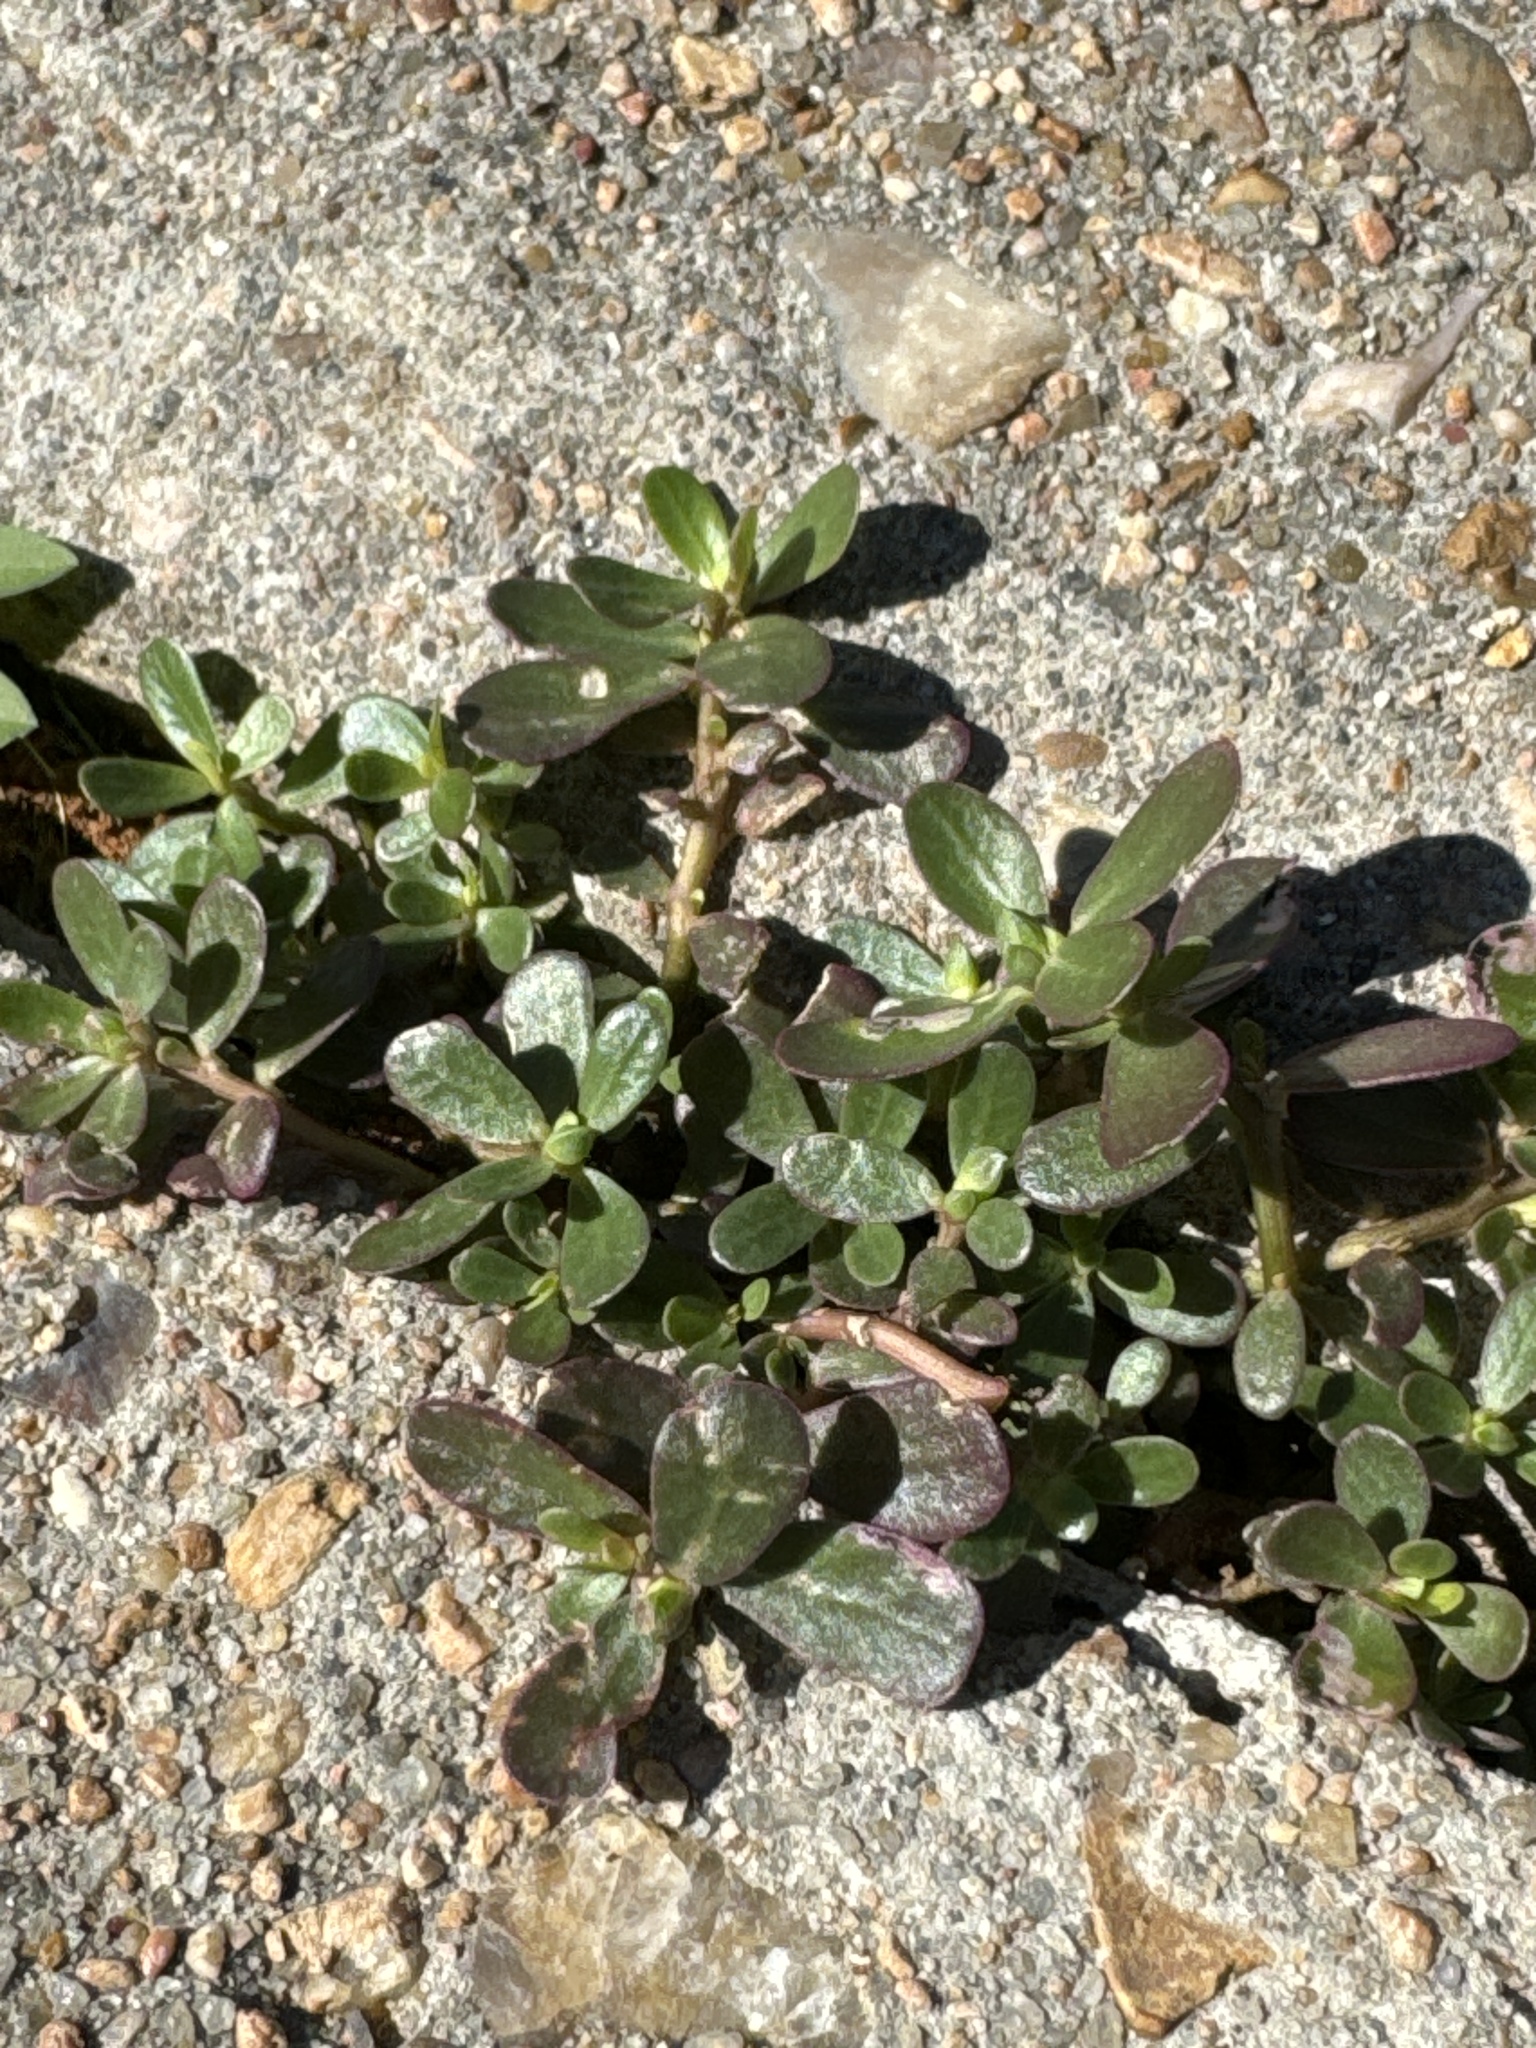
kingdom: Plantae
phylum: Tracheophyta
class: Magnoliopsida
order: Caryophyllales
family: Portulacaceae
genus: Portulaca
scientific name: Portulaca oleracea
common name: Common purslane
